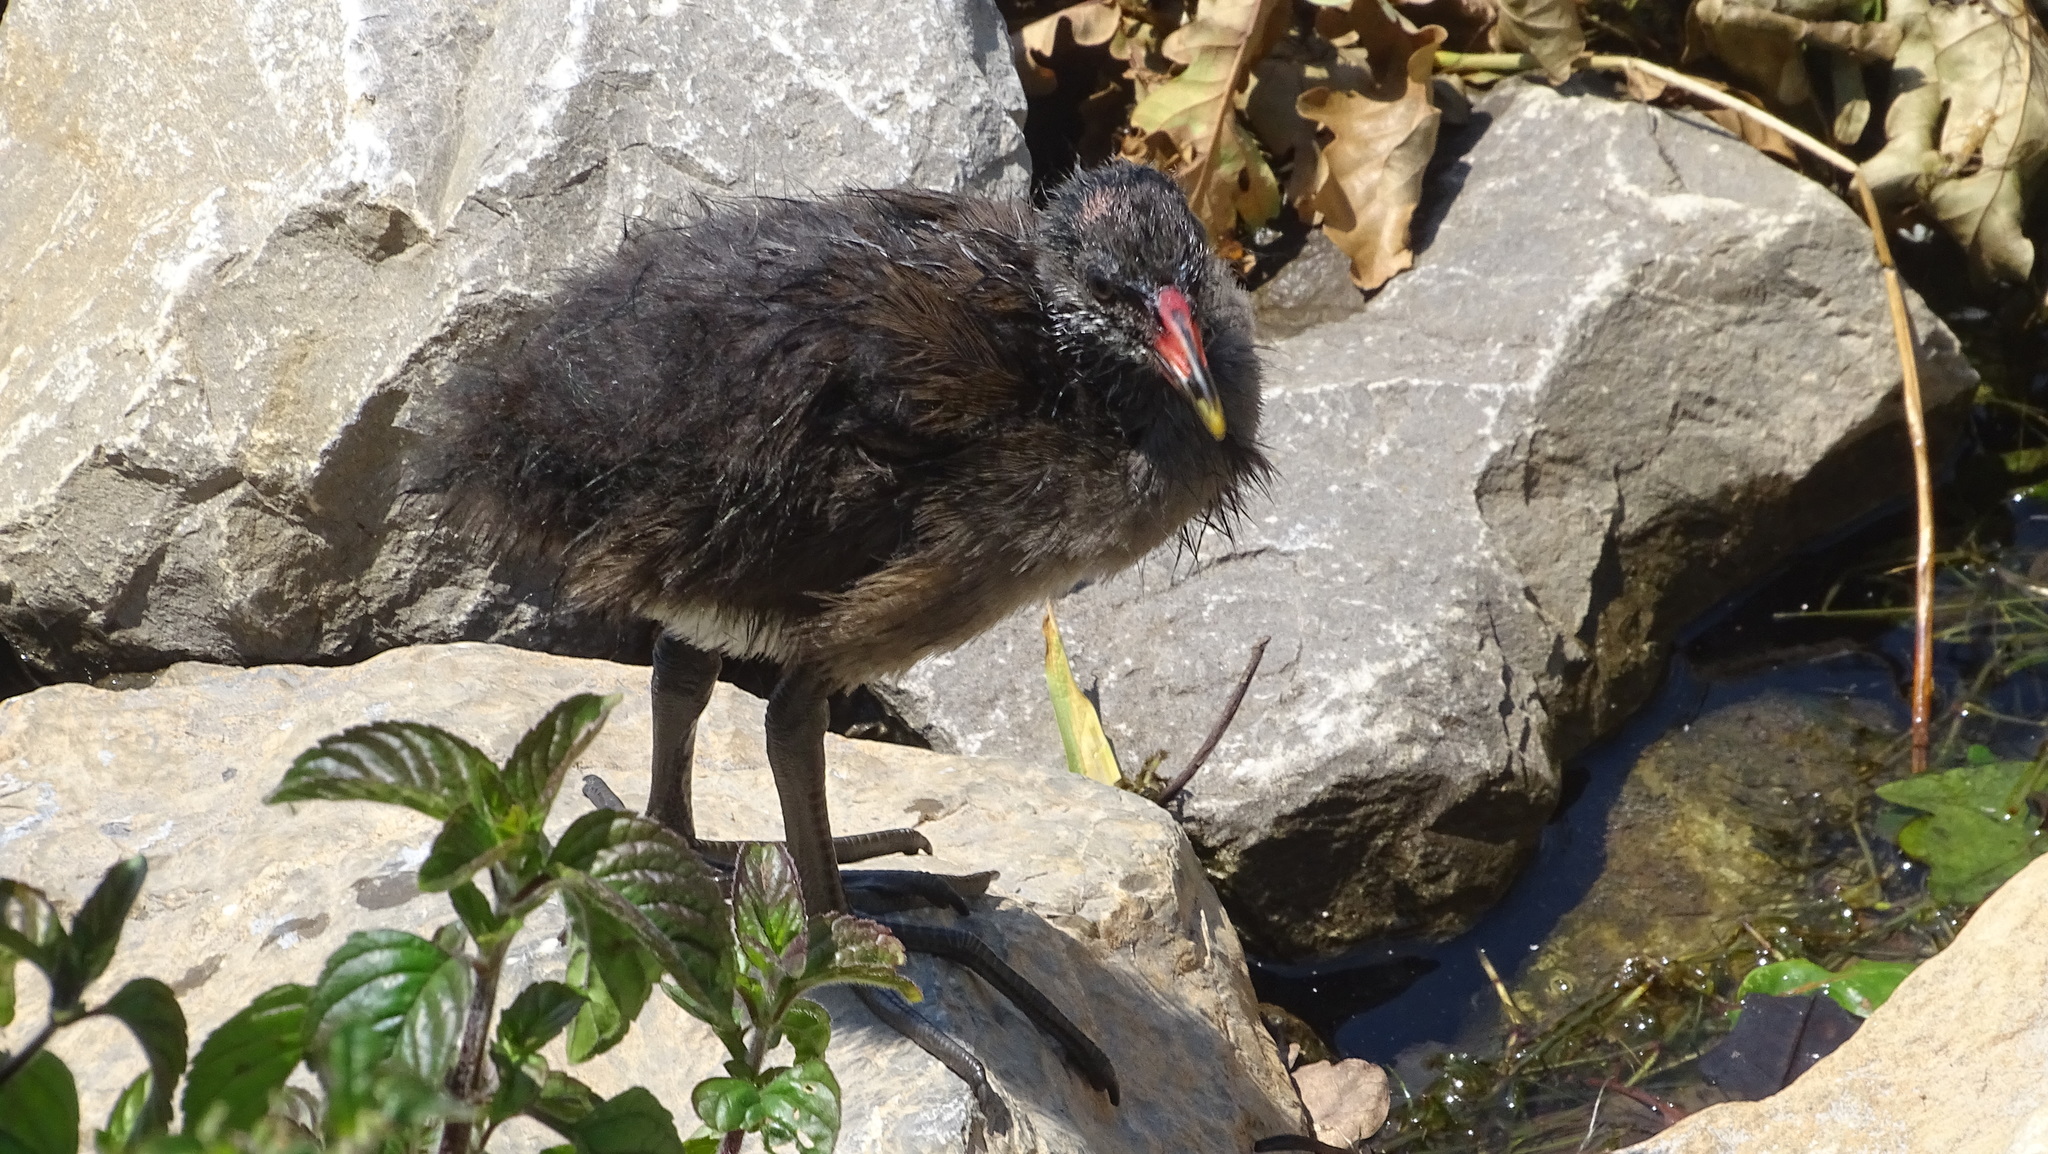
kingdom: Animalia
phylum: Chordata
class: Aves
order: Gruiformes
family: Rallidae
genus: Gallinula
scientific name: Gallinula chloropus
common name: Common moorhen
